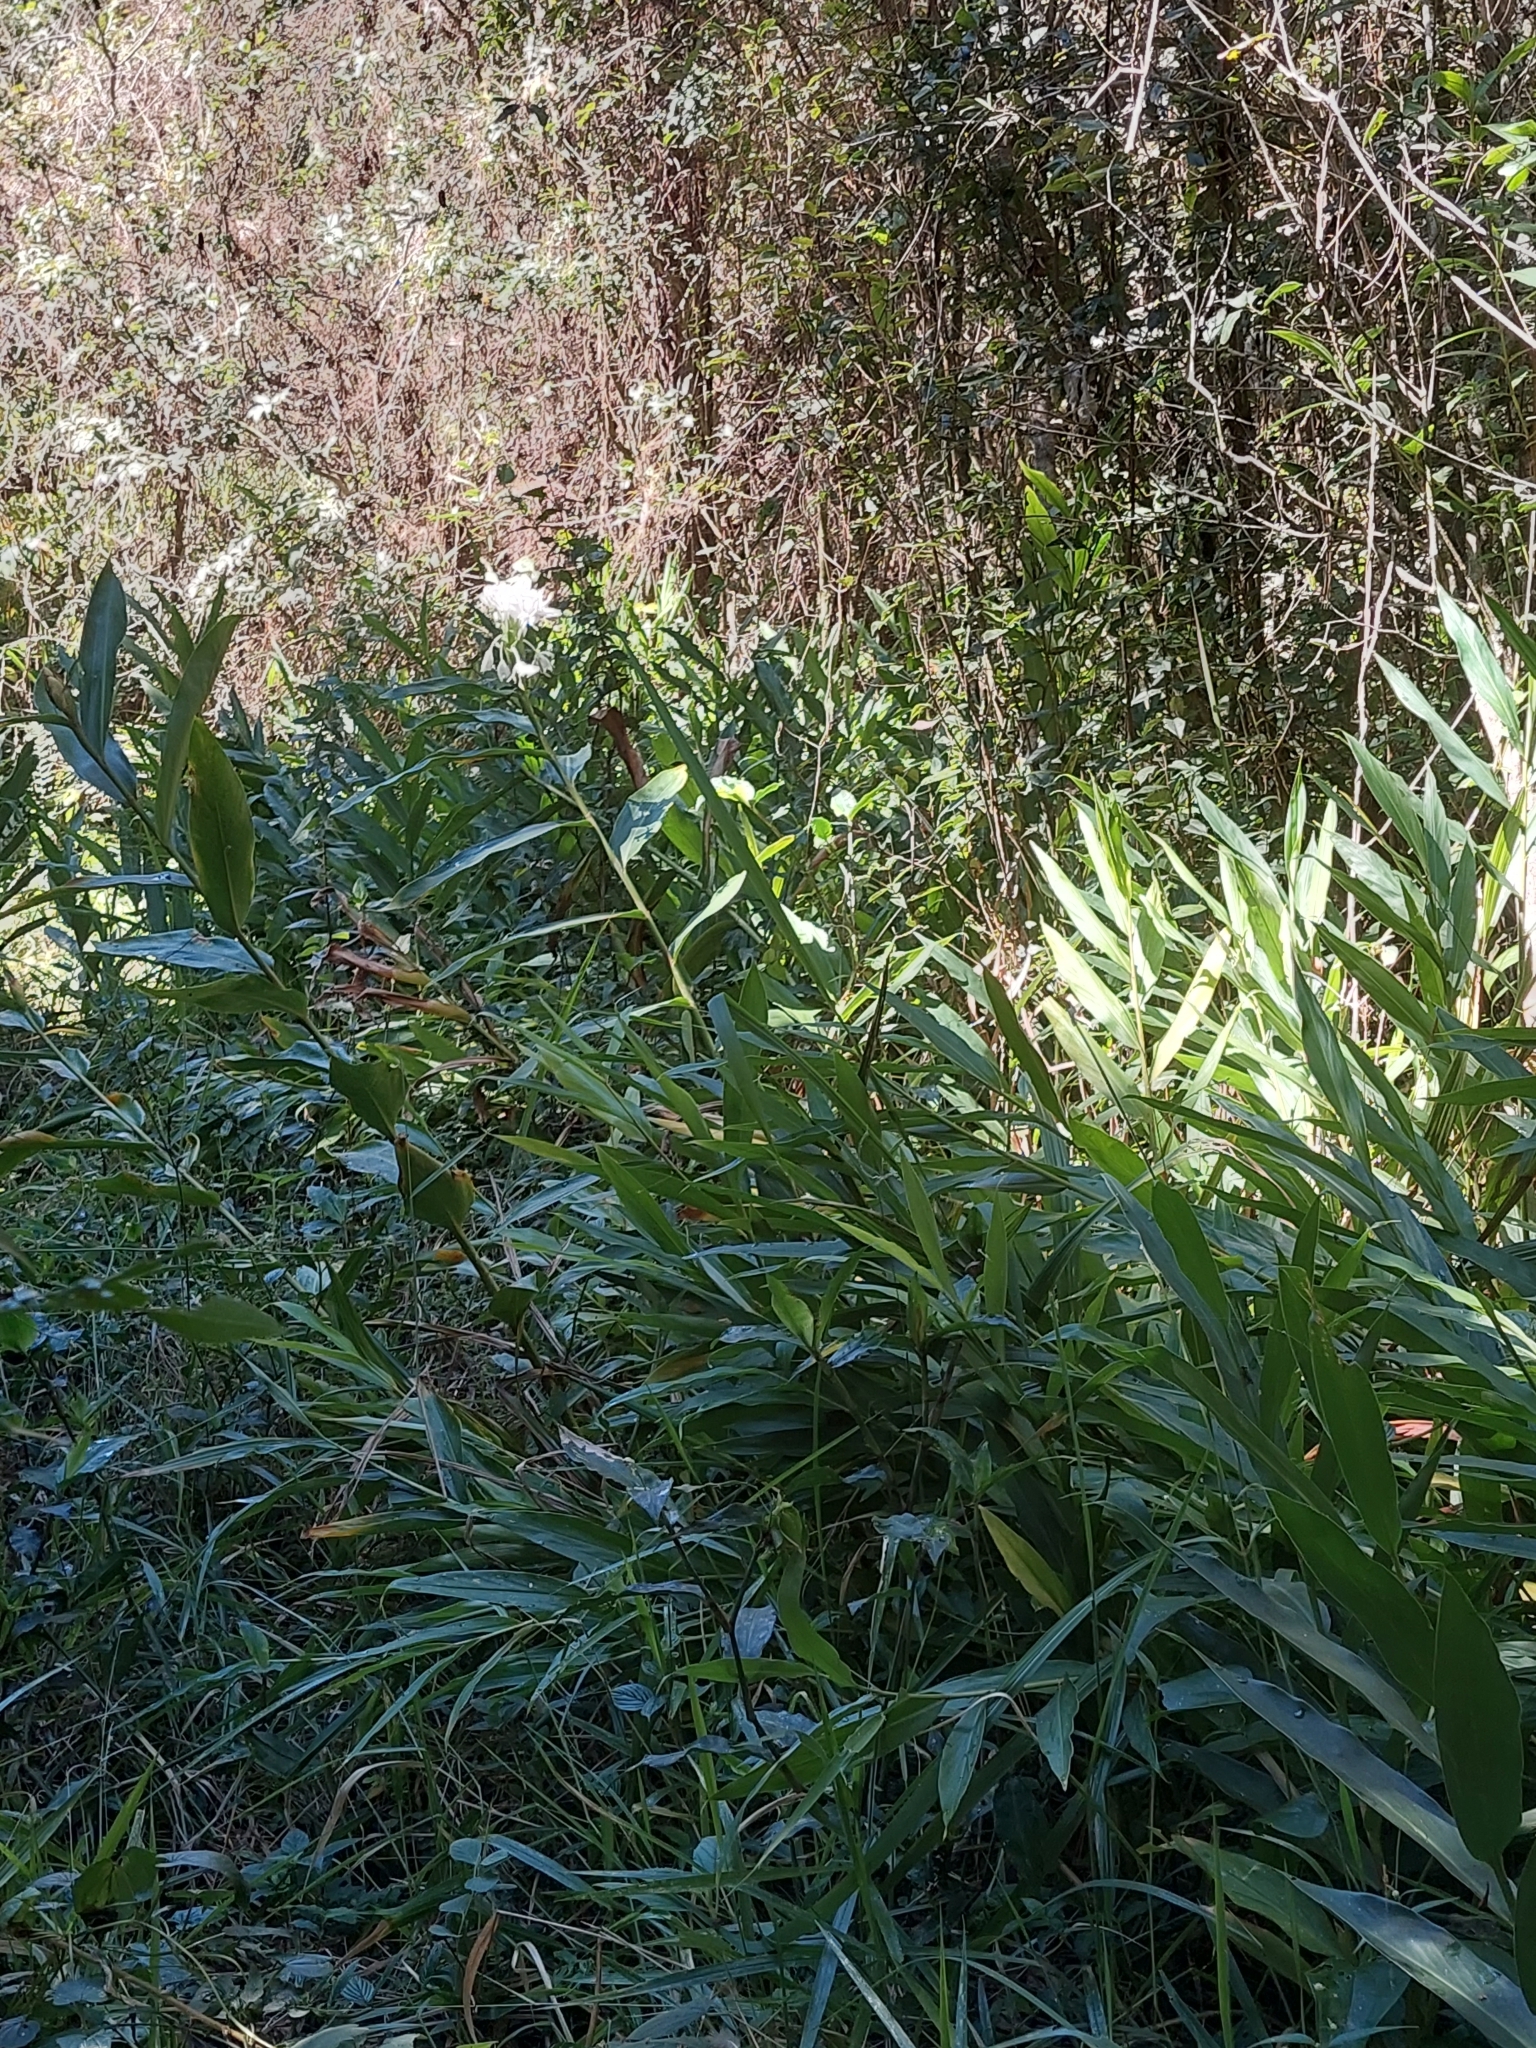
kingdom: Plantae
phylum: Tracheophyta
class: Liliopsida
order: Zingiberales
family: Zingiberaceae
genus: Hedychium
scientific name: Hedychium coronarium
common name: White garland-lily
